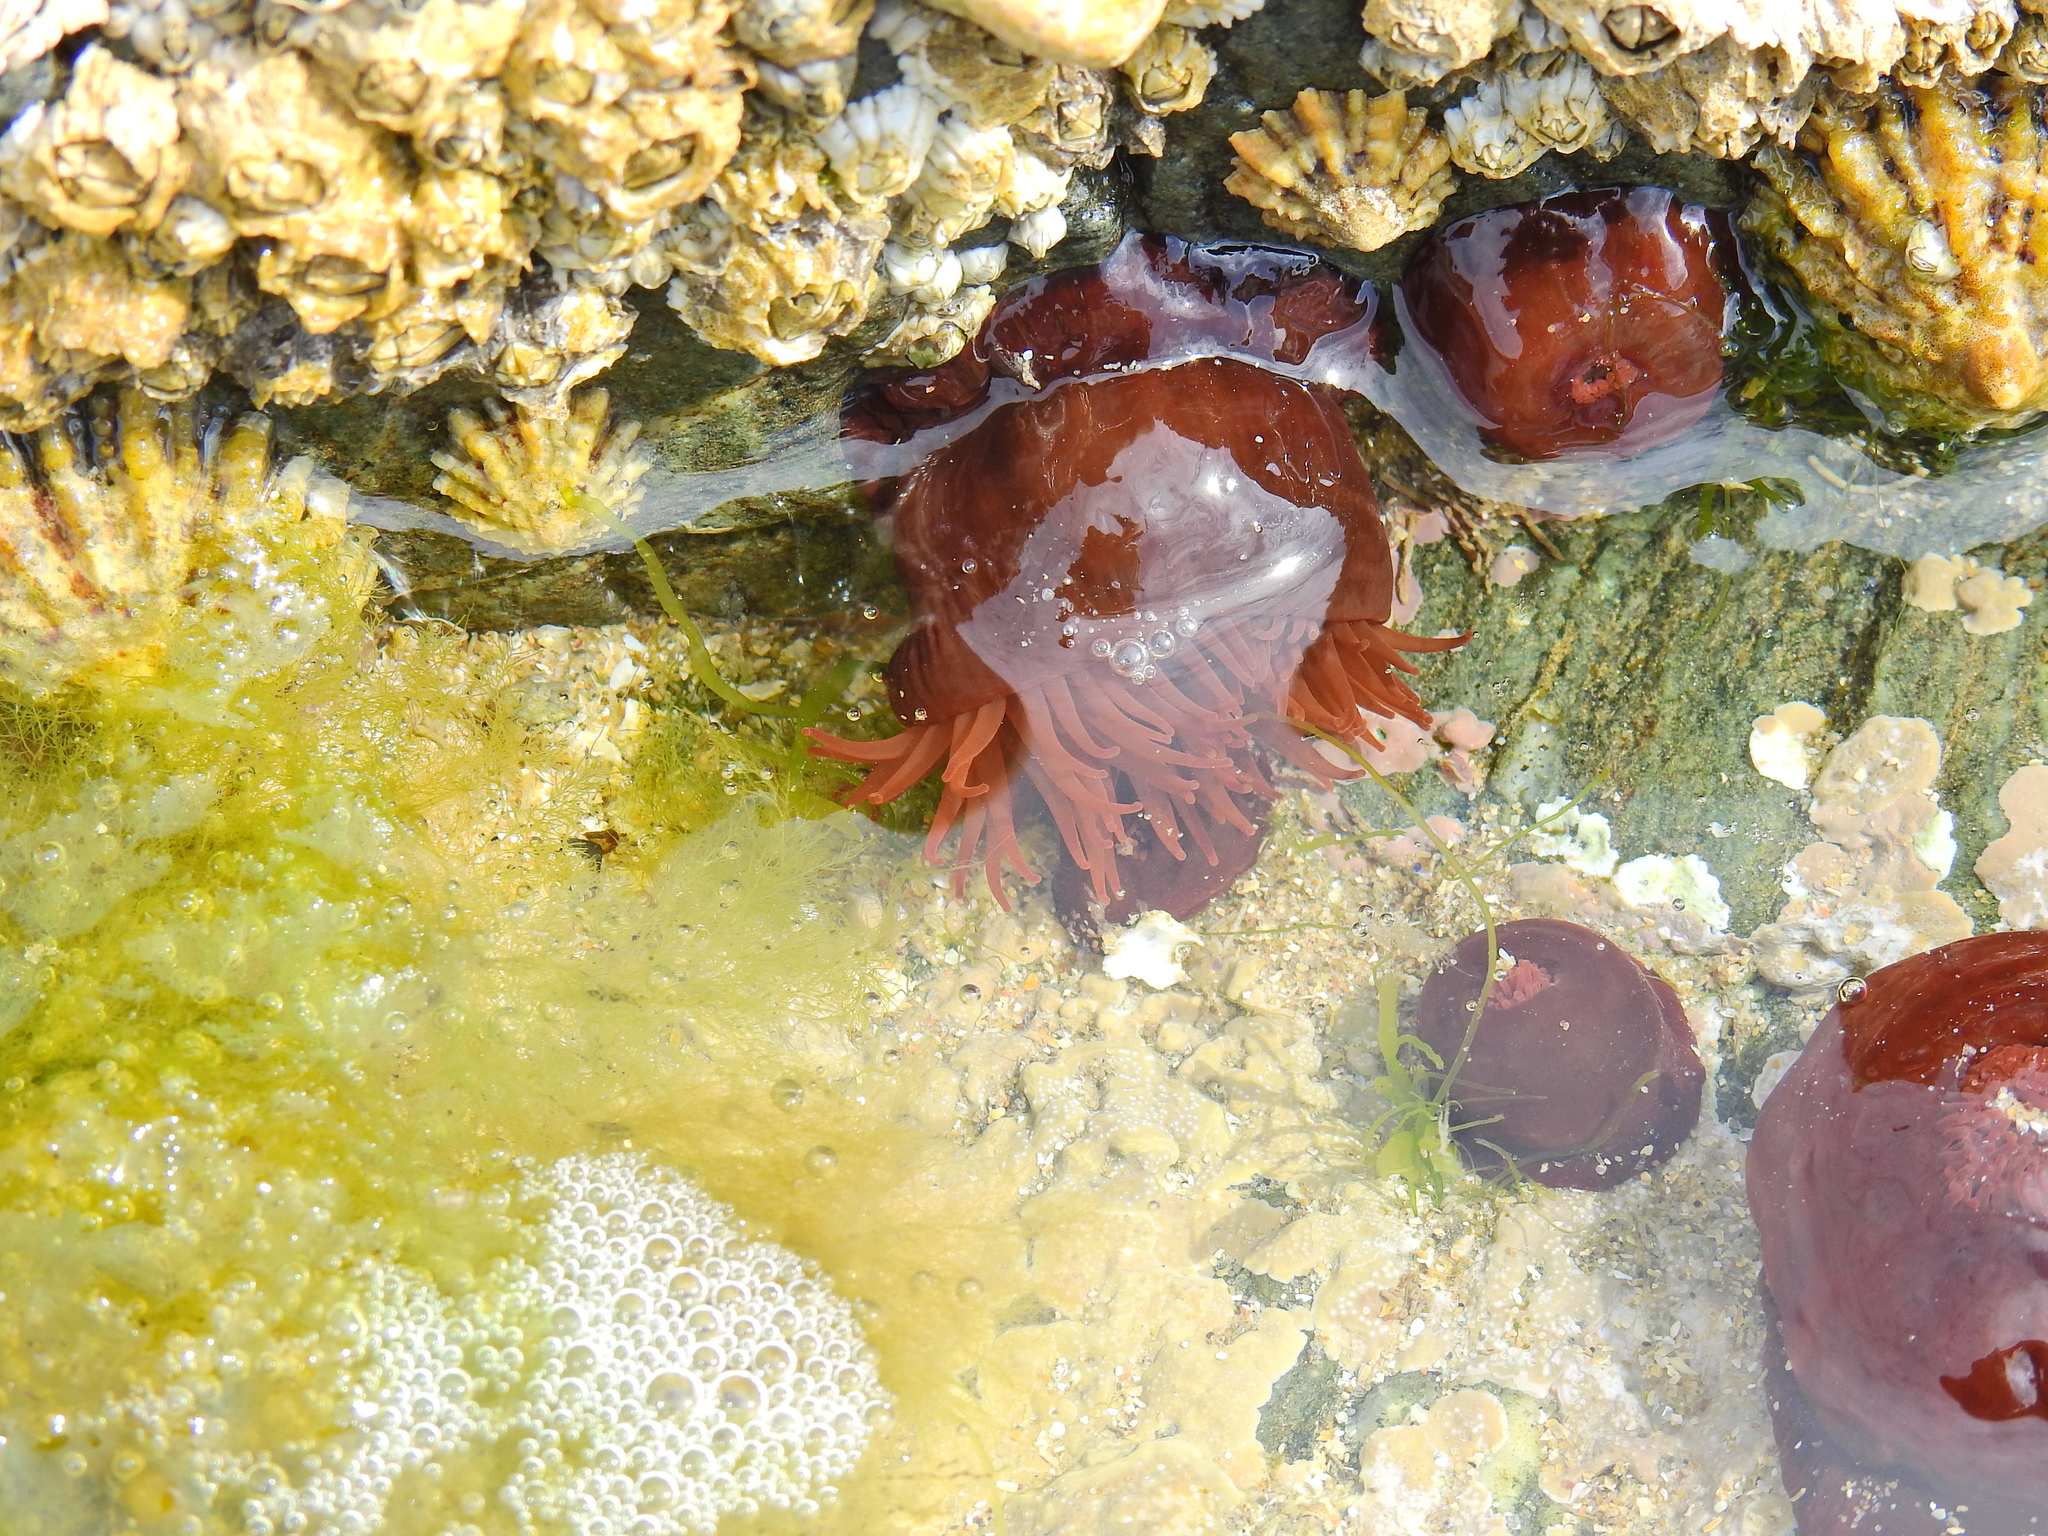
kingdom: Animalia
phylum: Cnidaria
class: Anthozoa
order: Actiniaria
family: Actiniidae
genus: Actinia
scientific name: Actinia equina
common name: Beadlet anemone
